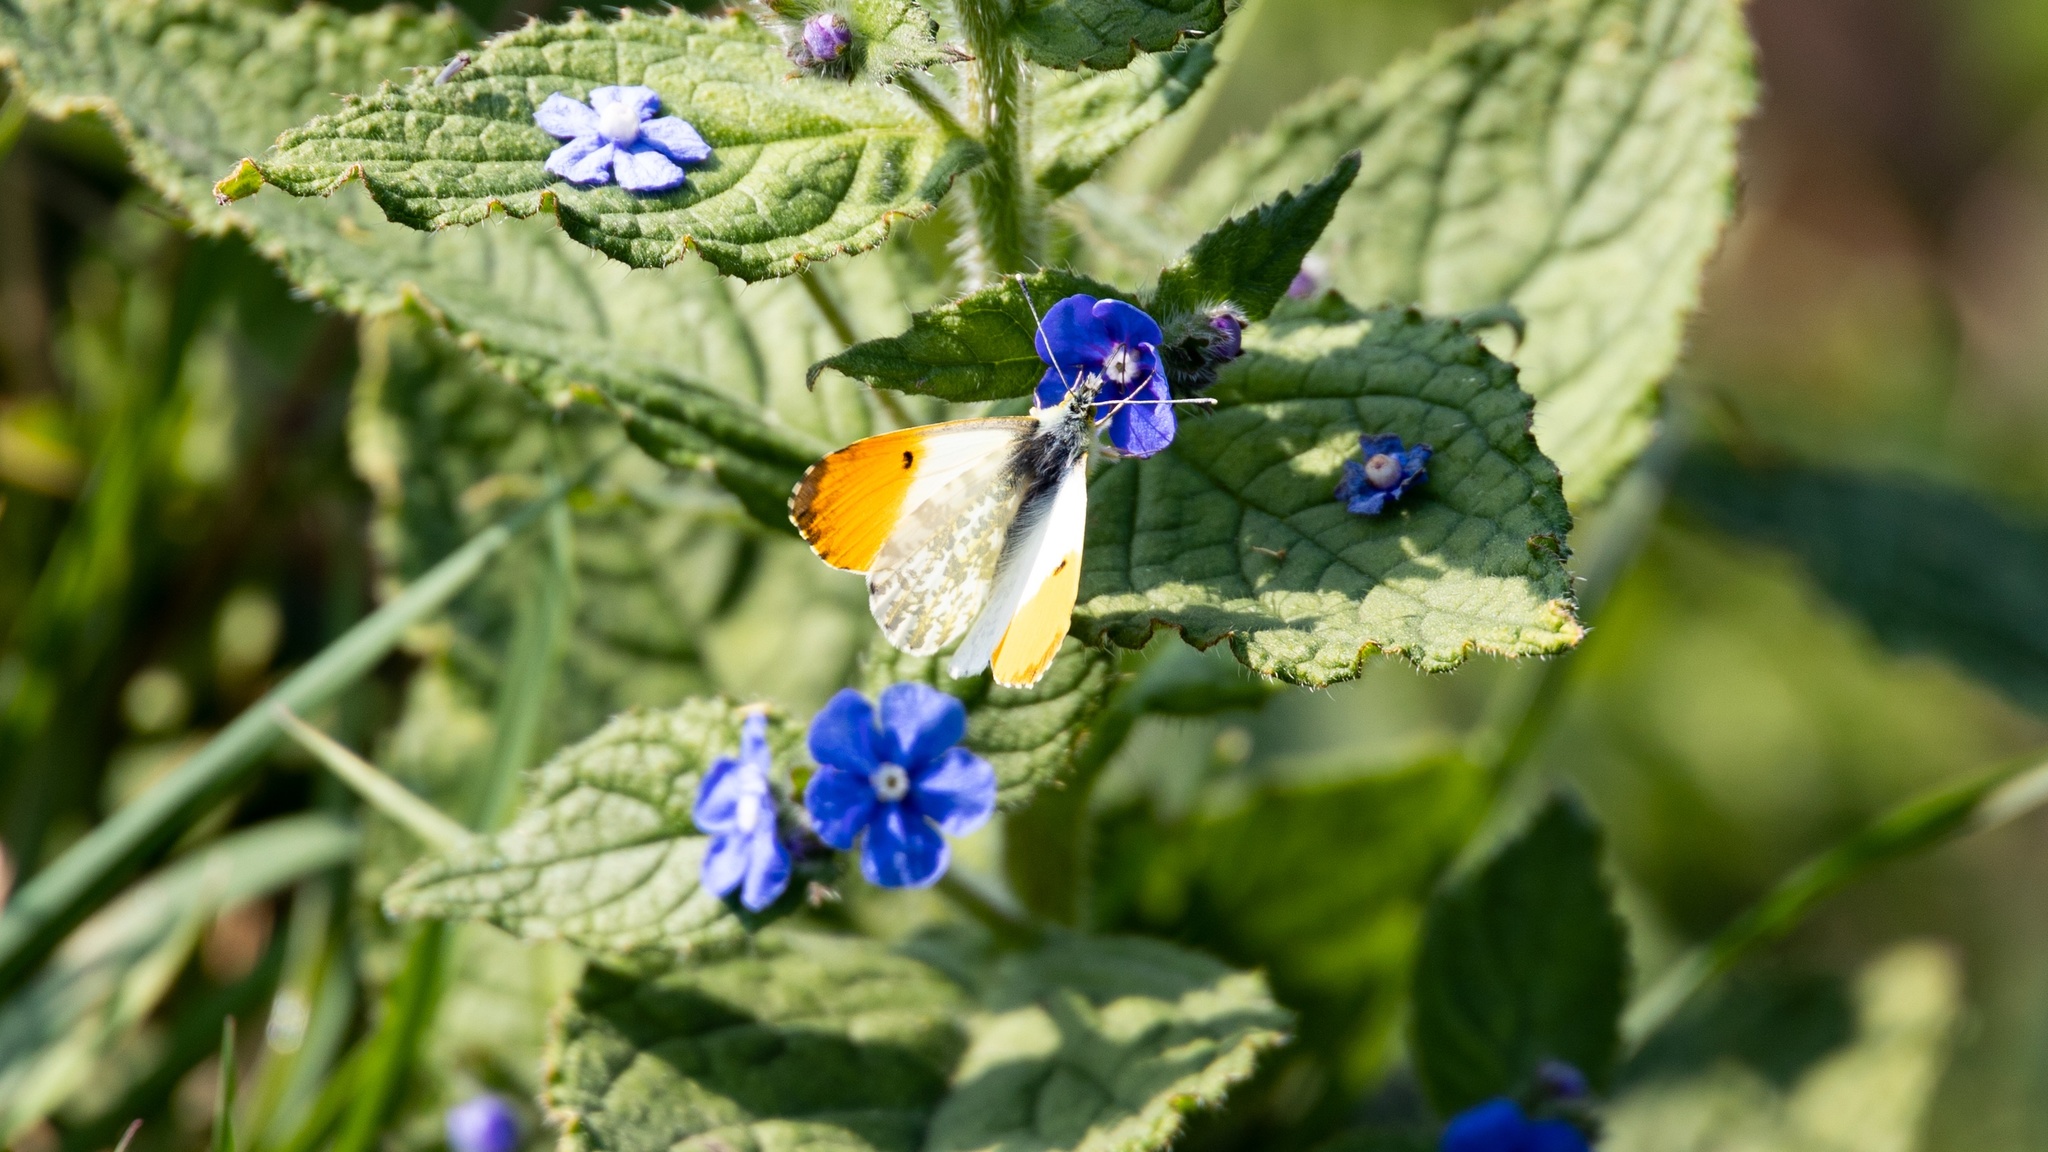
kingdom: Animalia
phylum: Arthropoda
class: Insecta
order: Lepidoptera
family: Pieridae
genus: Anthocharis
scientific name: Anthocharis cardamines
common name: Orange-tip
